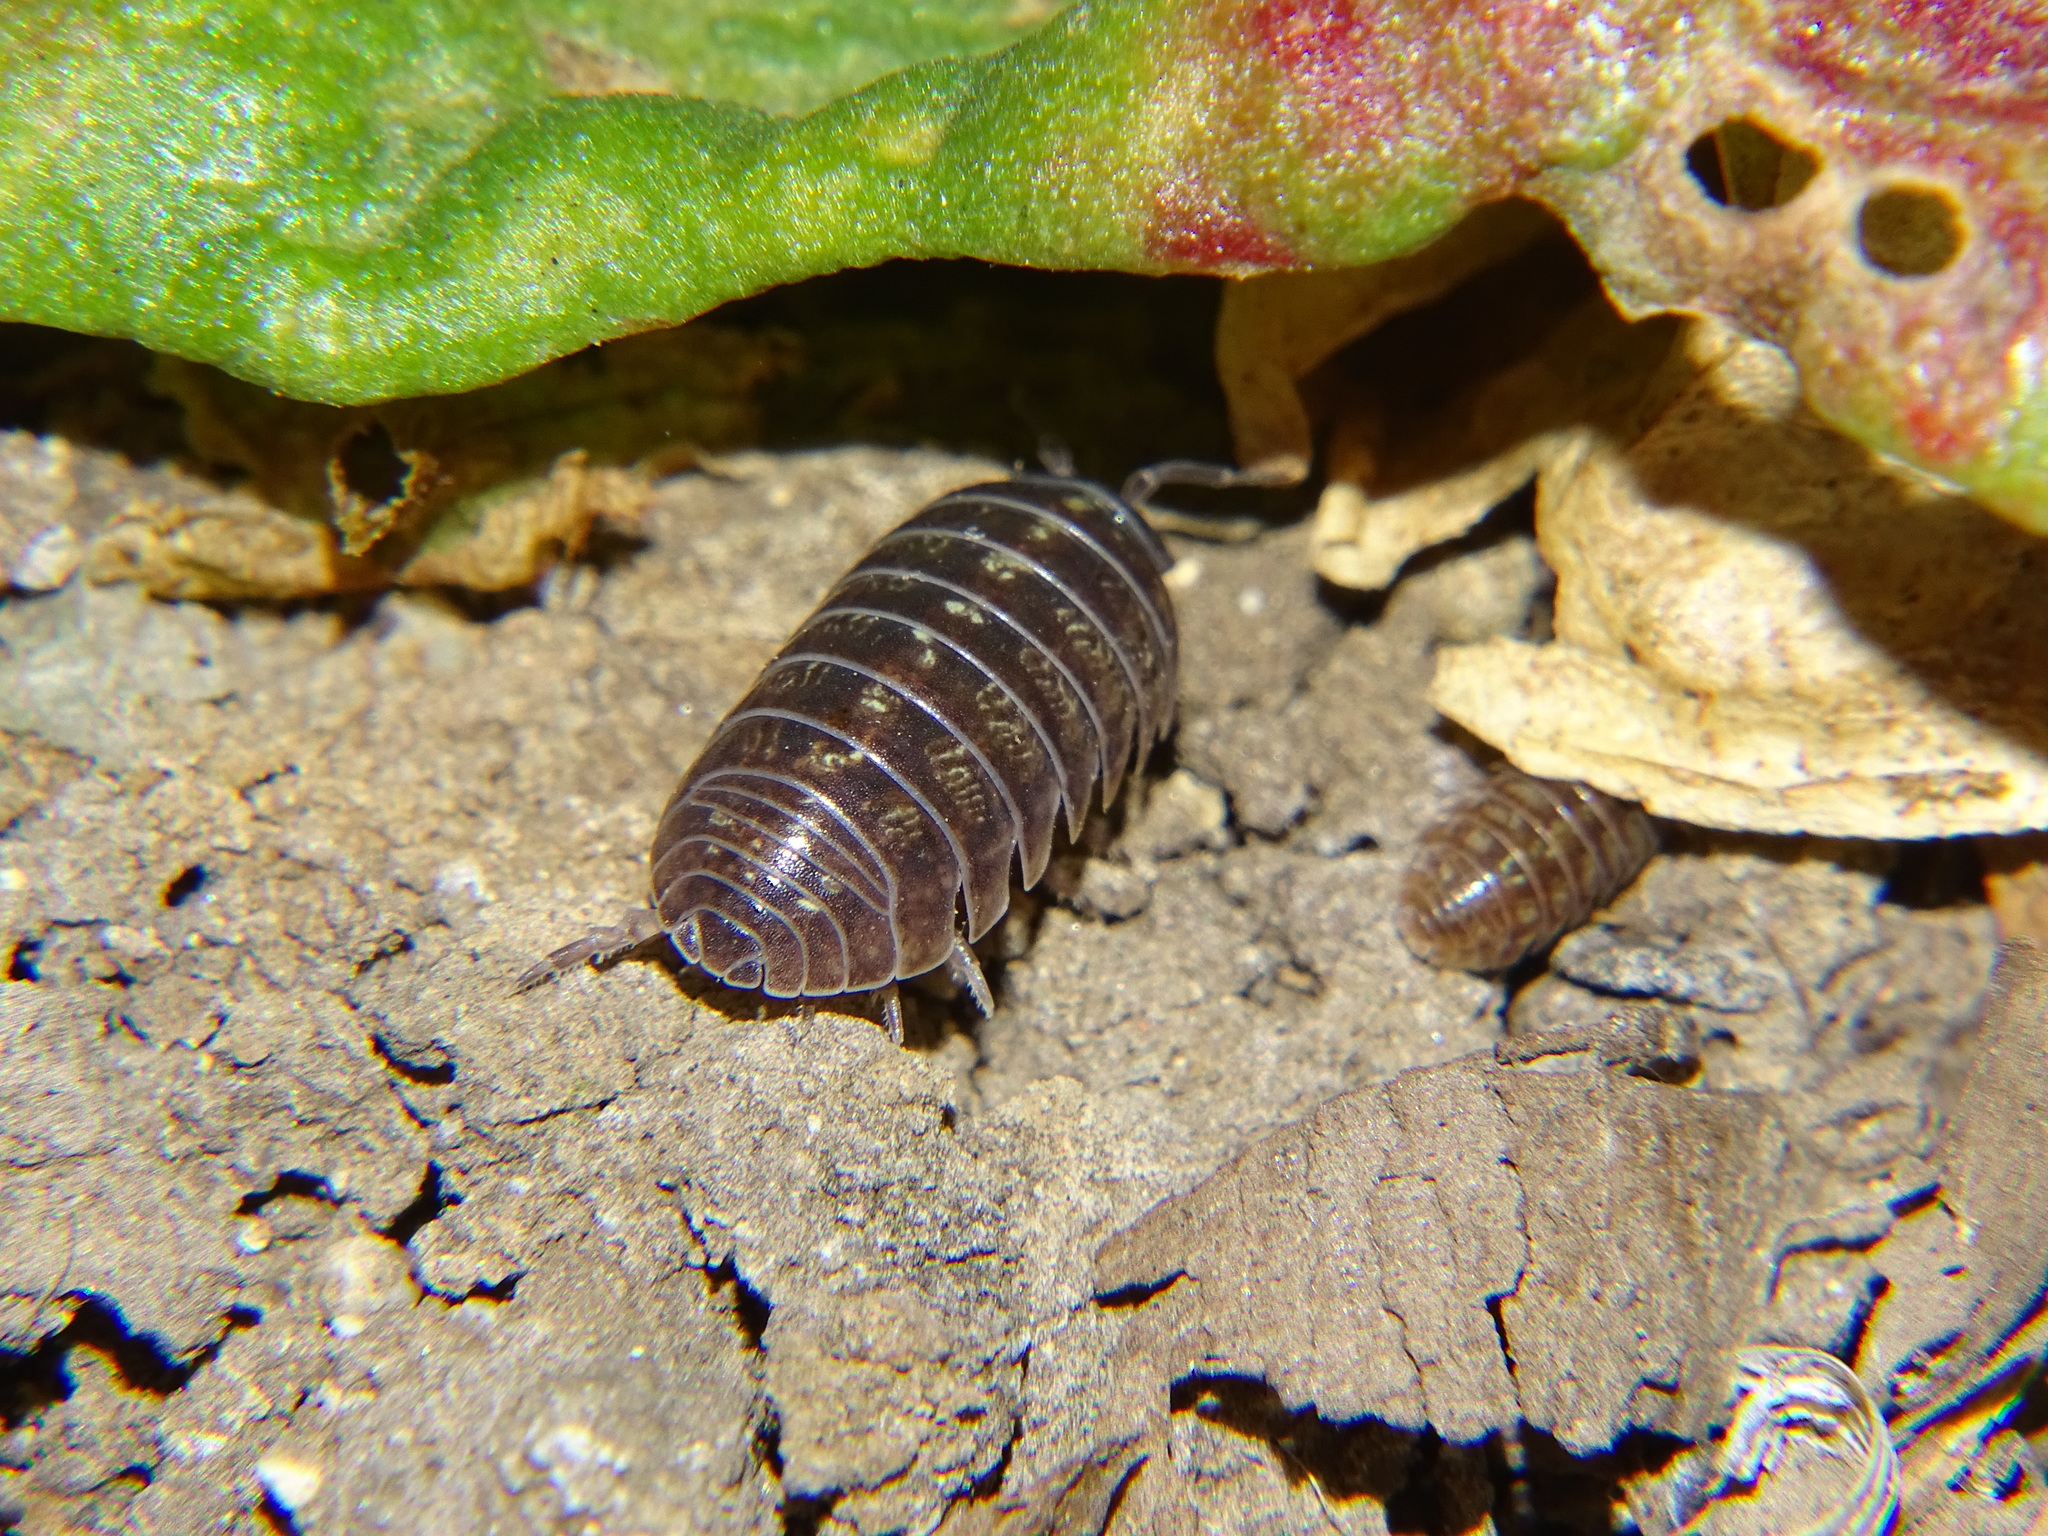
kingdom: Animalia
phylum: Arthropoda
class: Malacostraca
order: Isopoda
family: Armadillidiidae
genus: Armadillidium
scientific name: Armadillidium vulgare
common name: Common pill woodlouse
